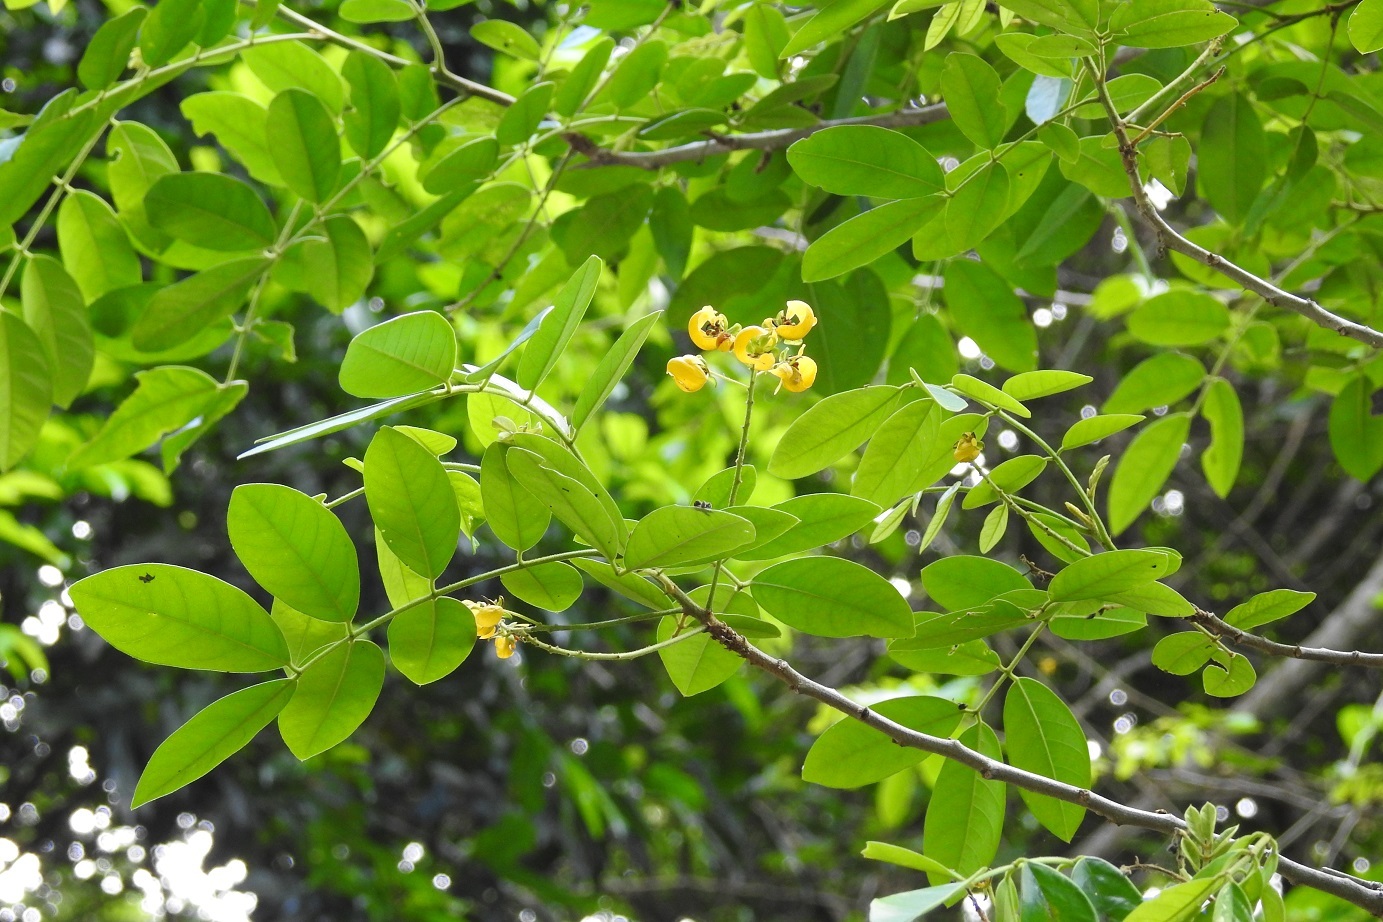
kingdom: Plantae
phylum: Tracheophyta
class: Magnoliopsida
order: Fabales
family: Fabaceae
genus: Senna
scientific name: Senna peralteana
